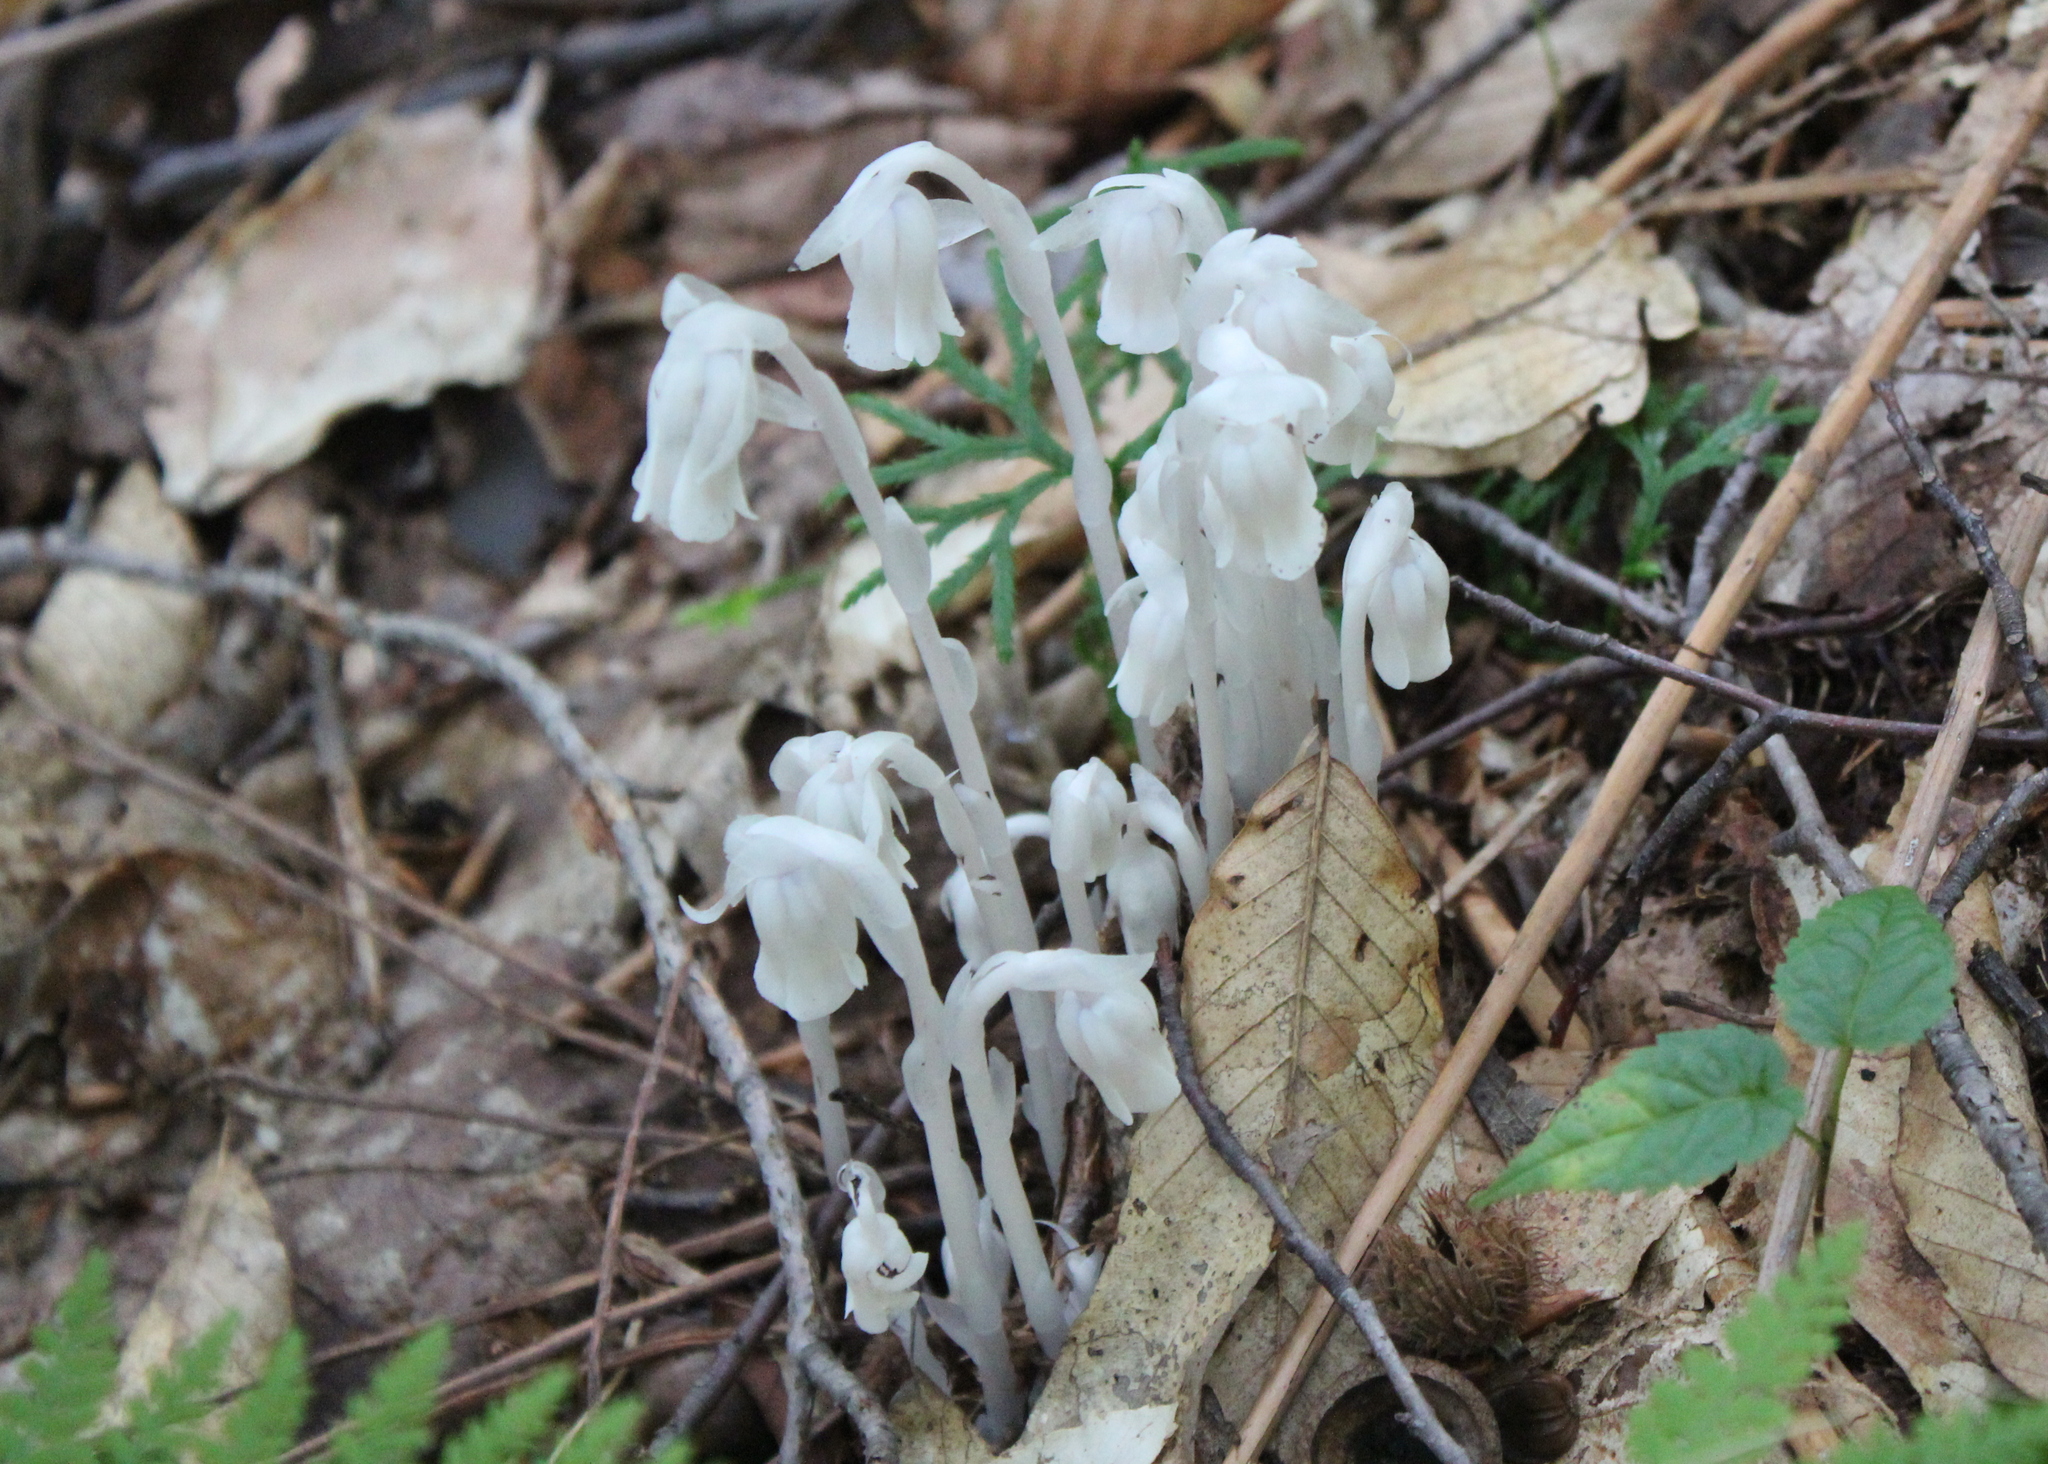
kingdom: Plantae
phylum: Tracheophyta
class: Magnoliopsida
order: Ericales
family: Ericaceae
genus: Monotropa
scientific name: Monotropa uniflora
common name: Convulsion root
